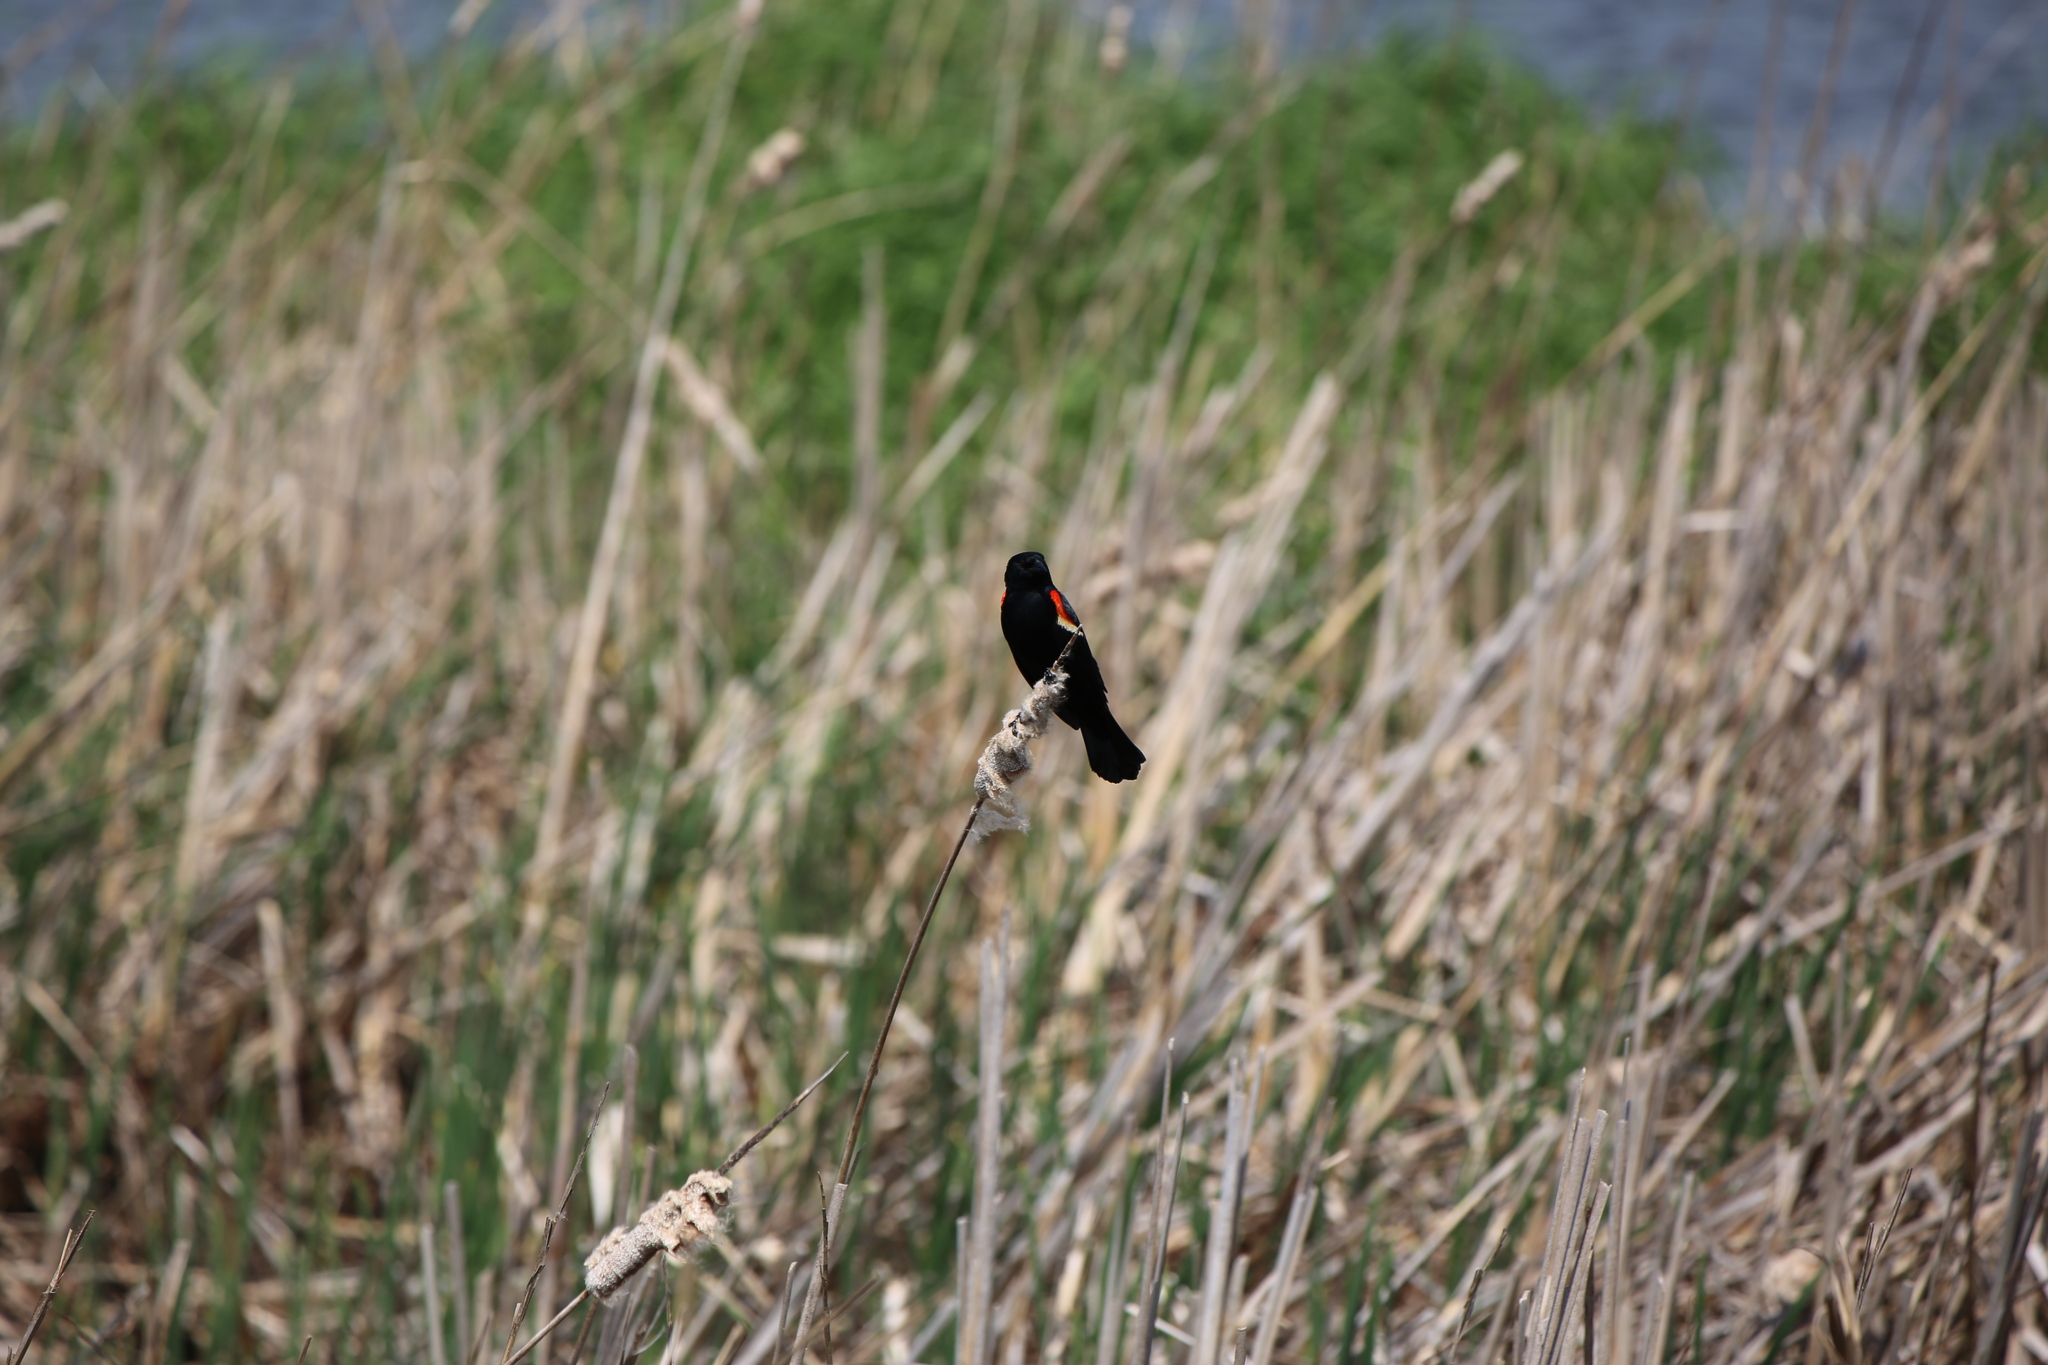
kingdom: Animalia
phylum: Chordata
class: Aves
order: Passeriformes
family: Icteridae
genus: Agelaius
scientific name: Agelaius phoeniceus
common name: Red-winged blackbird
